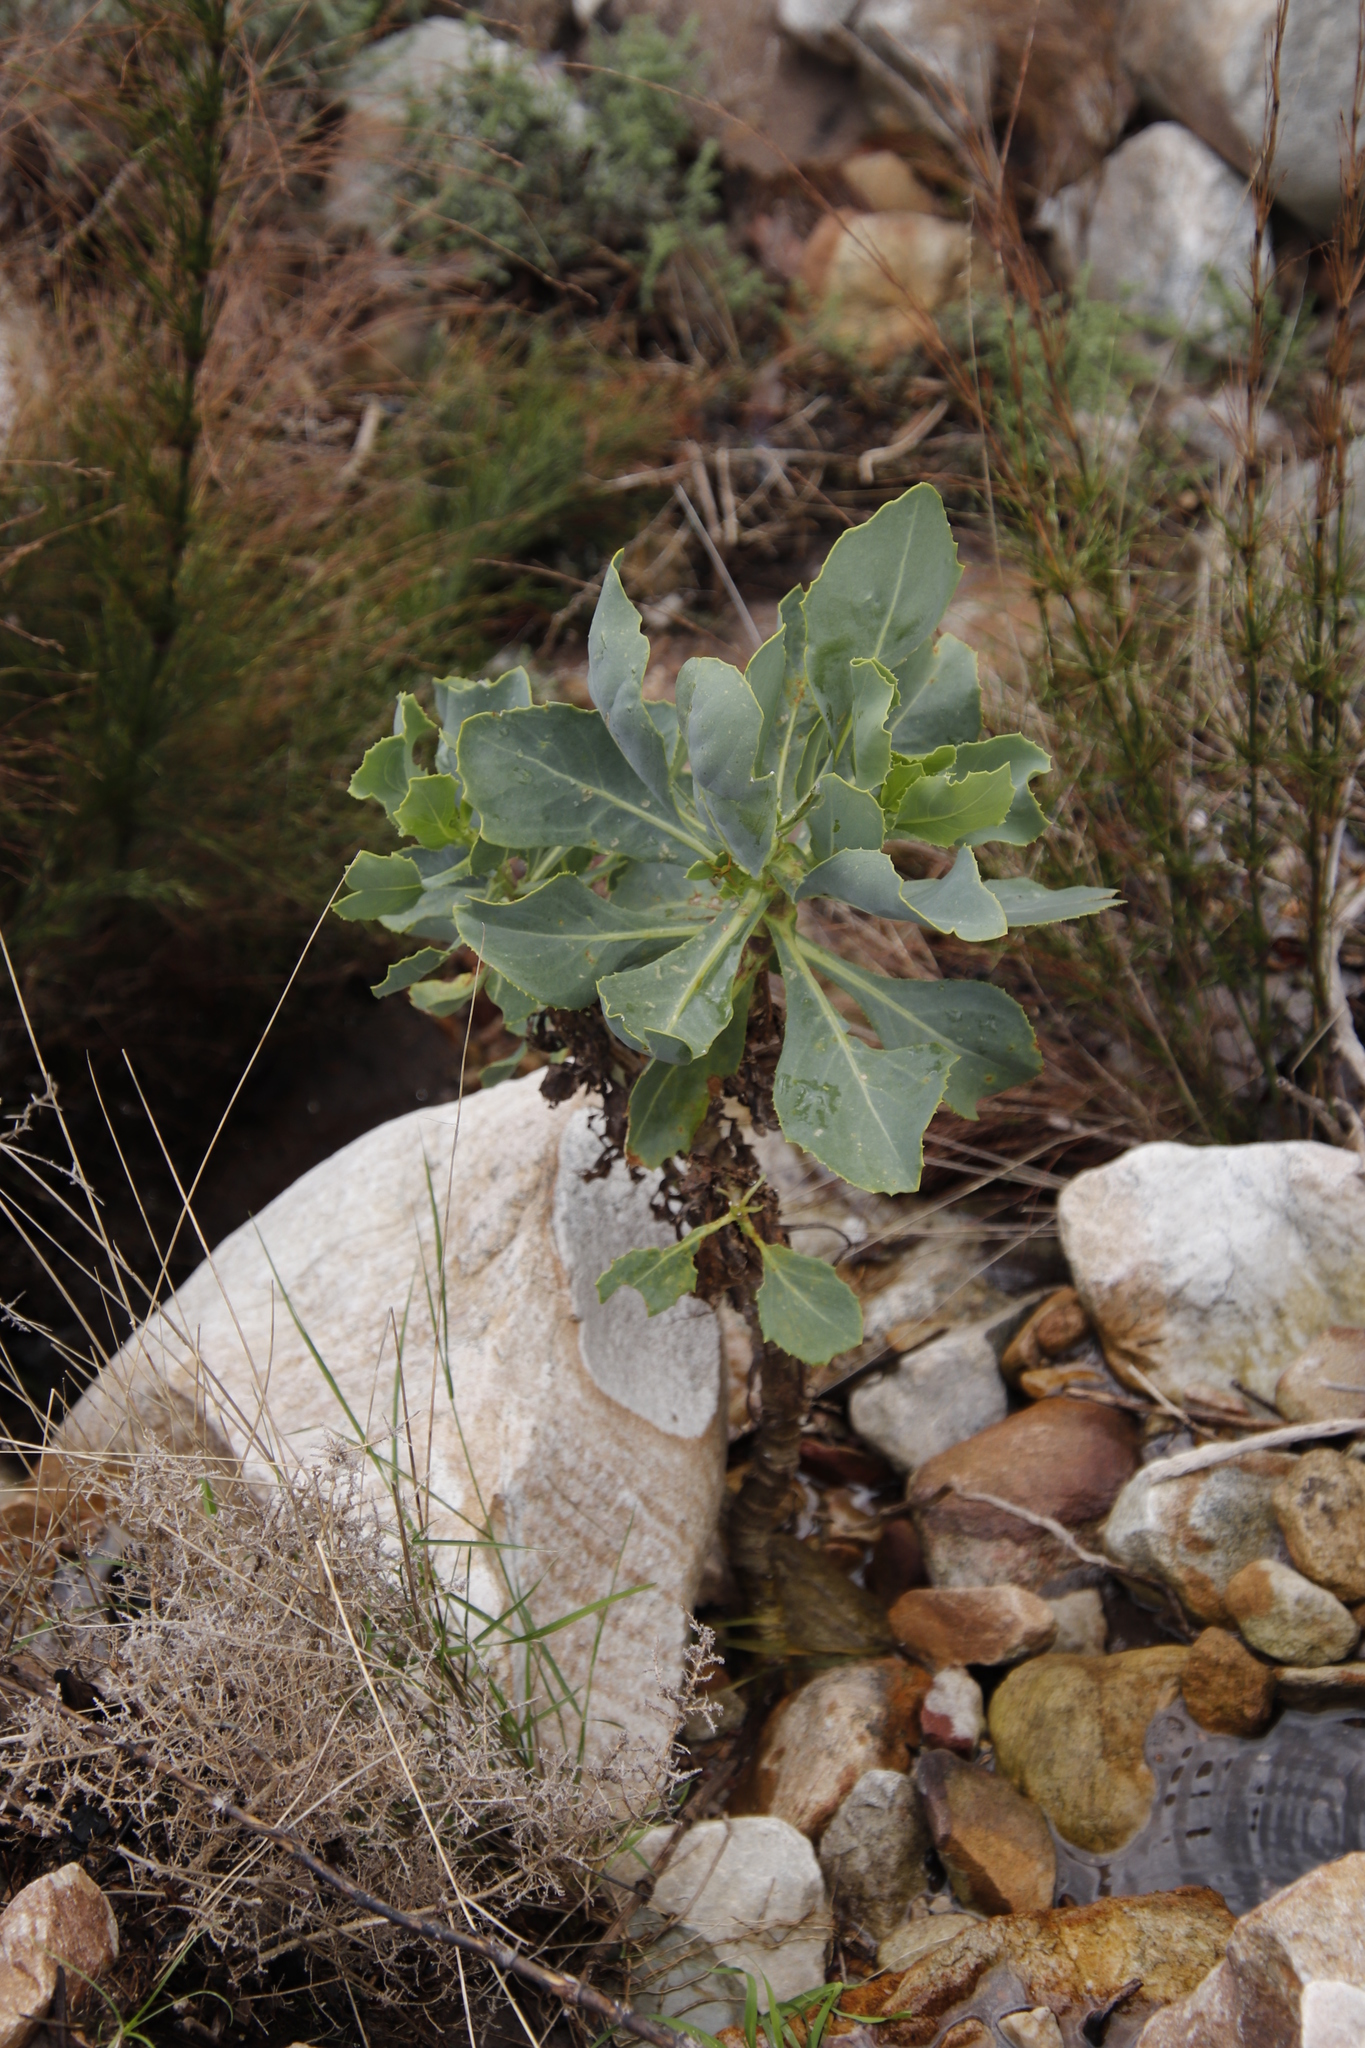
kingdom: Plantae
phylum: Tracheophyta
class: Magnoliopsida
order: Asterales
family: Asteraceae
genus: Othonna
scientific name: Othonna parviflora
